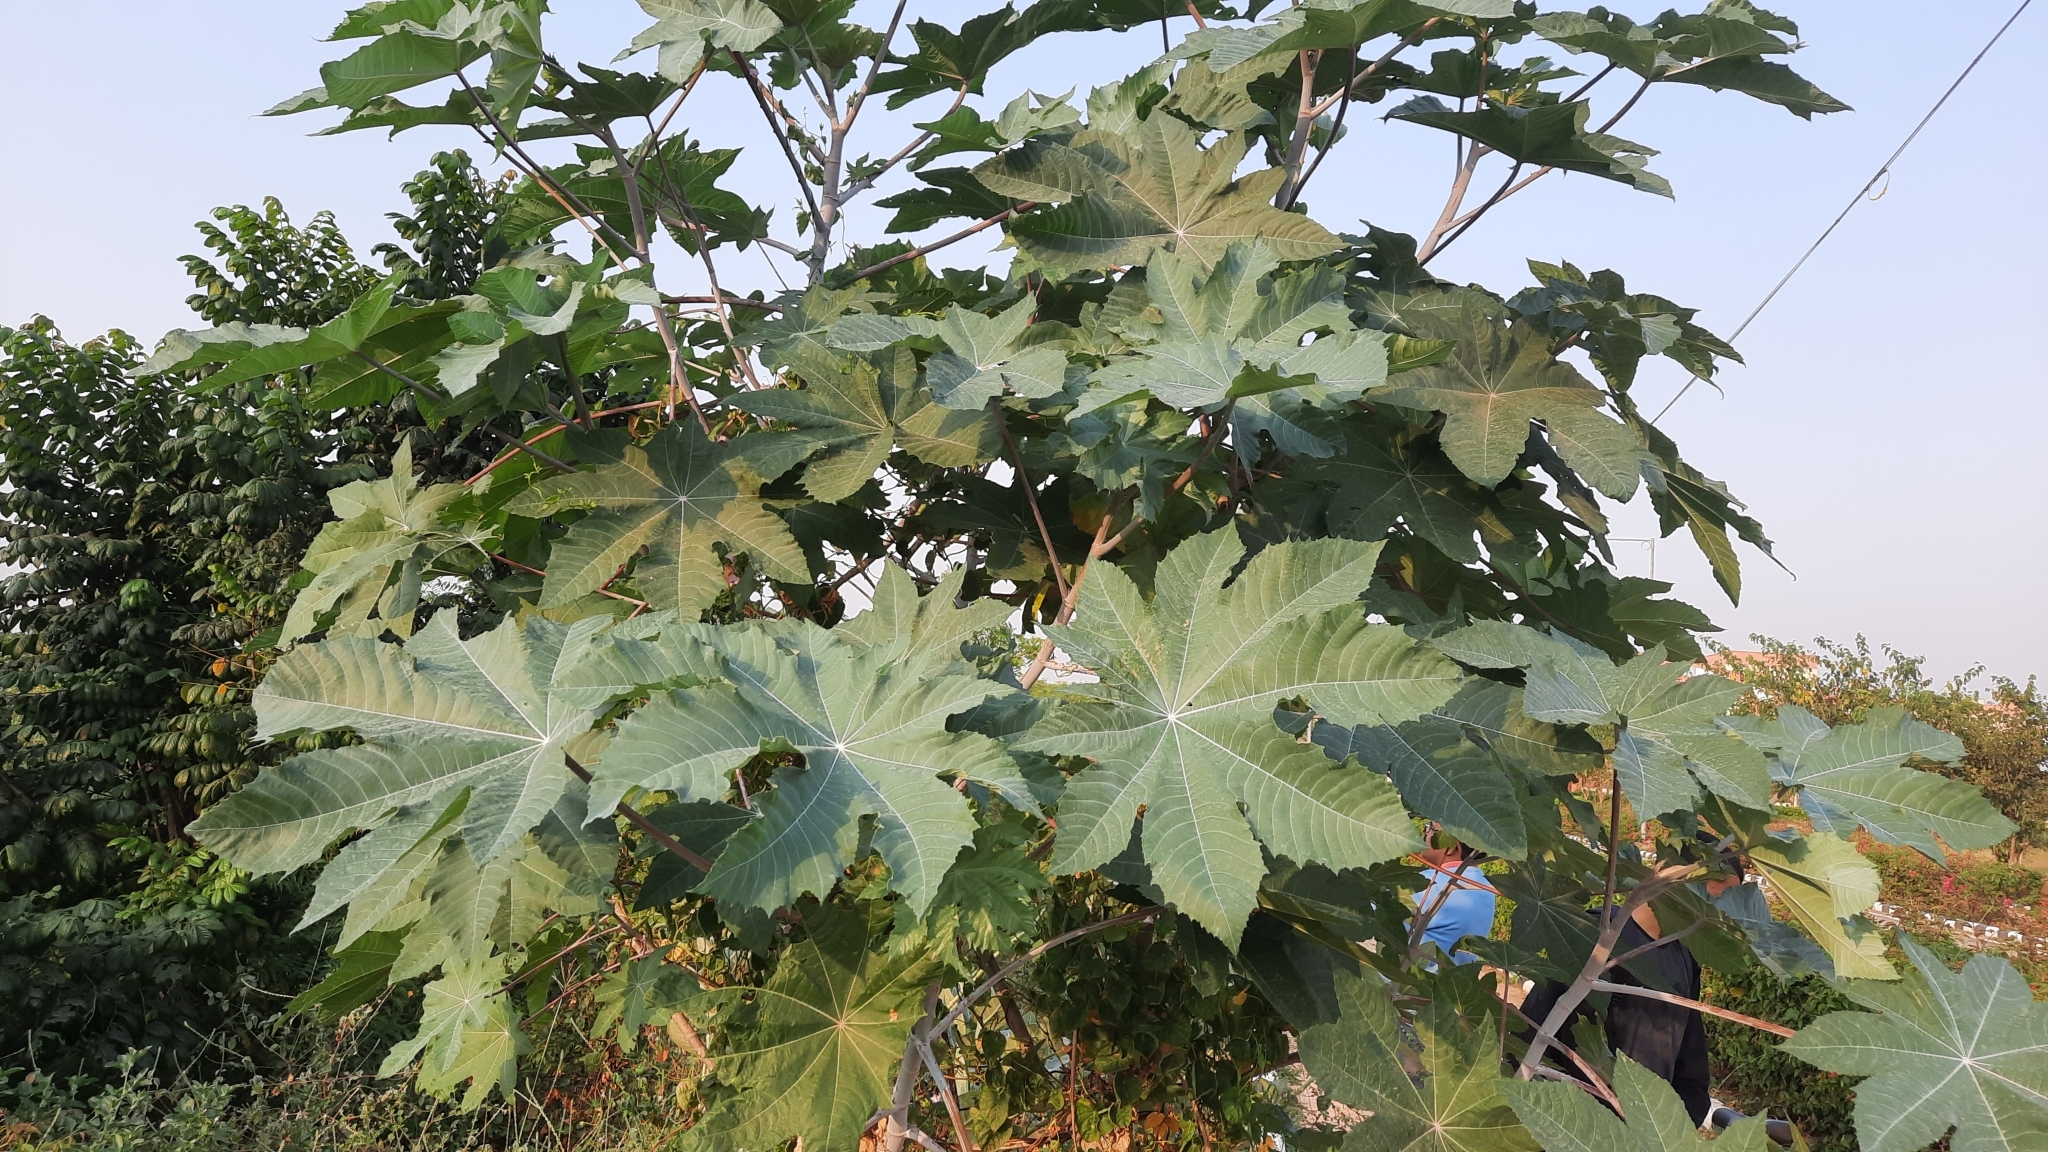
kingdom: Plantae
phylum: Tracheophyta
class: Magnoliopsida
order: Malpighiales
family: Euphorbiaceae
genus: Ricinus
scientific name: Ricinus communis
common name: Castor-oil-plant
